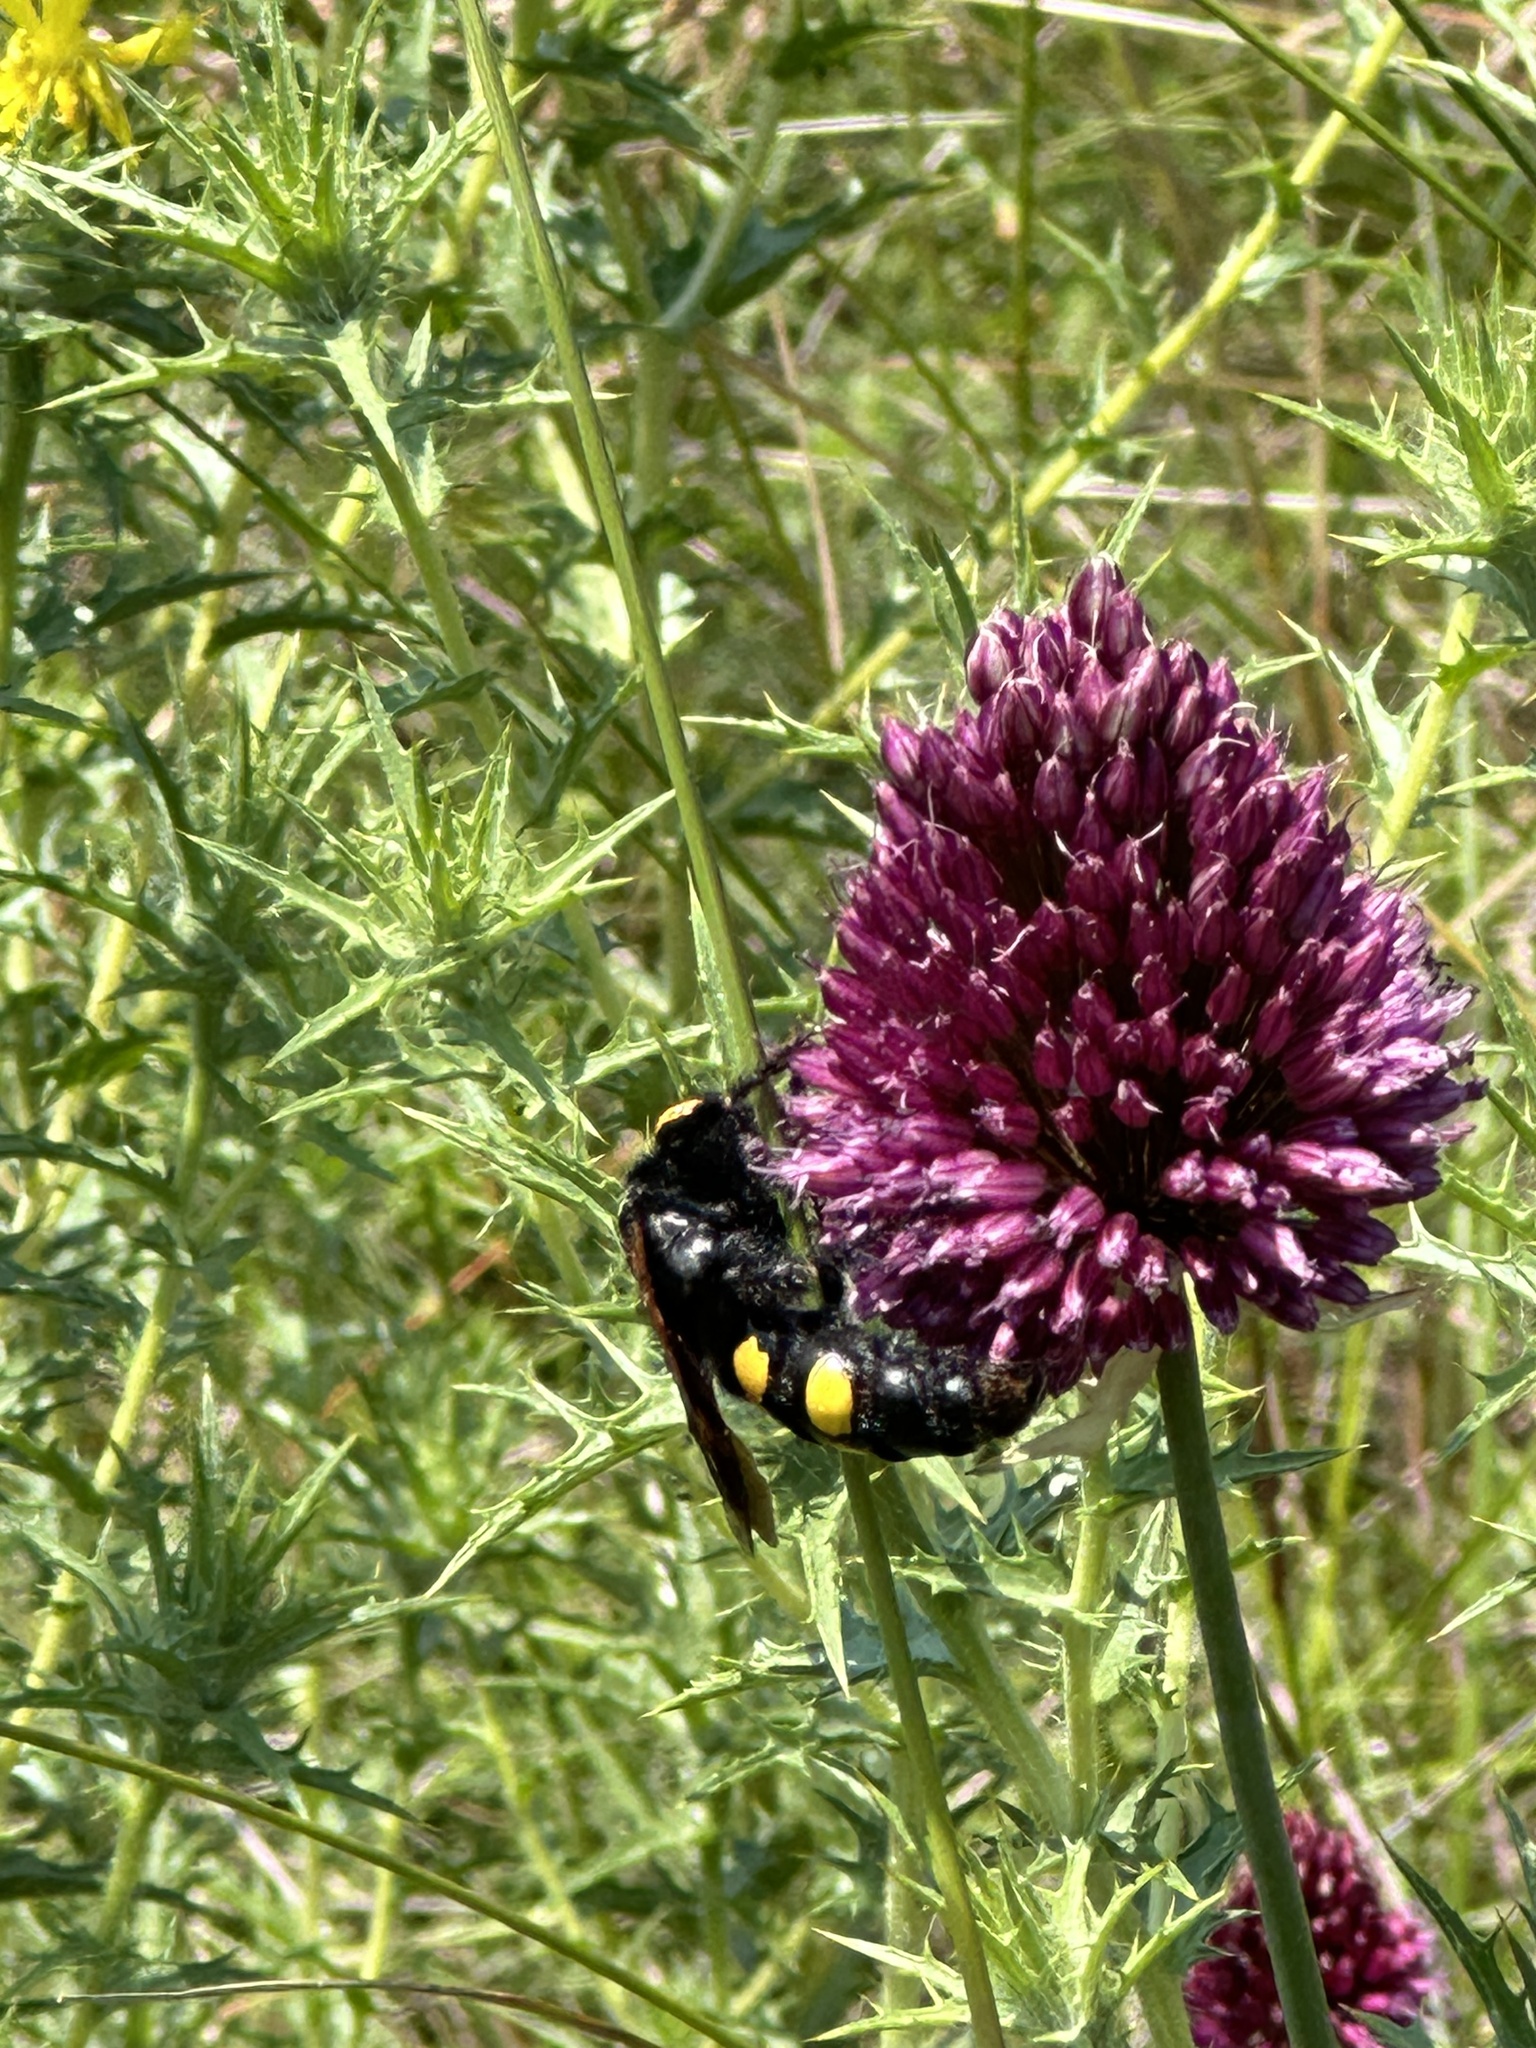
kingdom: Animalia
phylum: Arthropoda
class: Insecta
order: Hymenoptera
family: Scoliidae
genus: Megascolia
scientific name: Megascolia maculata
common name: Mammoth wasp
